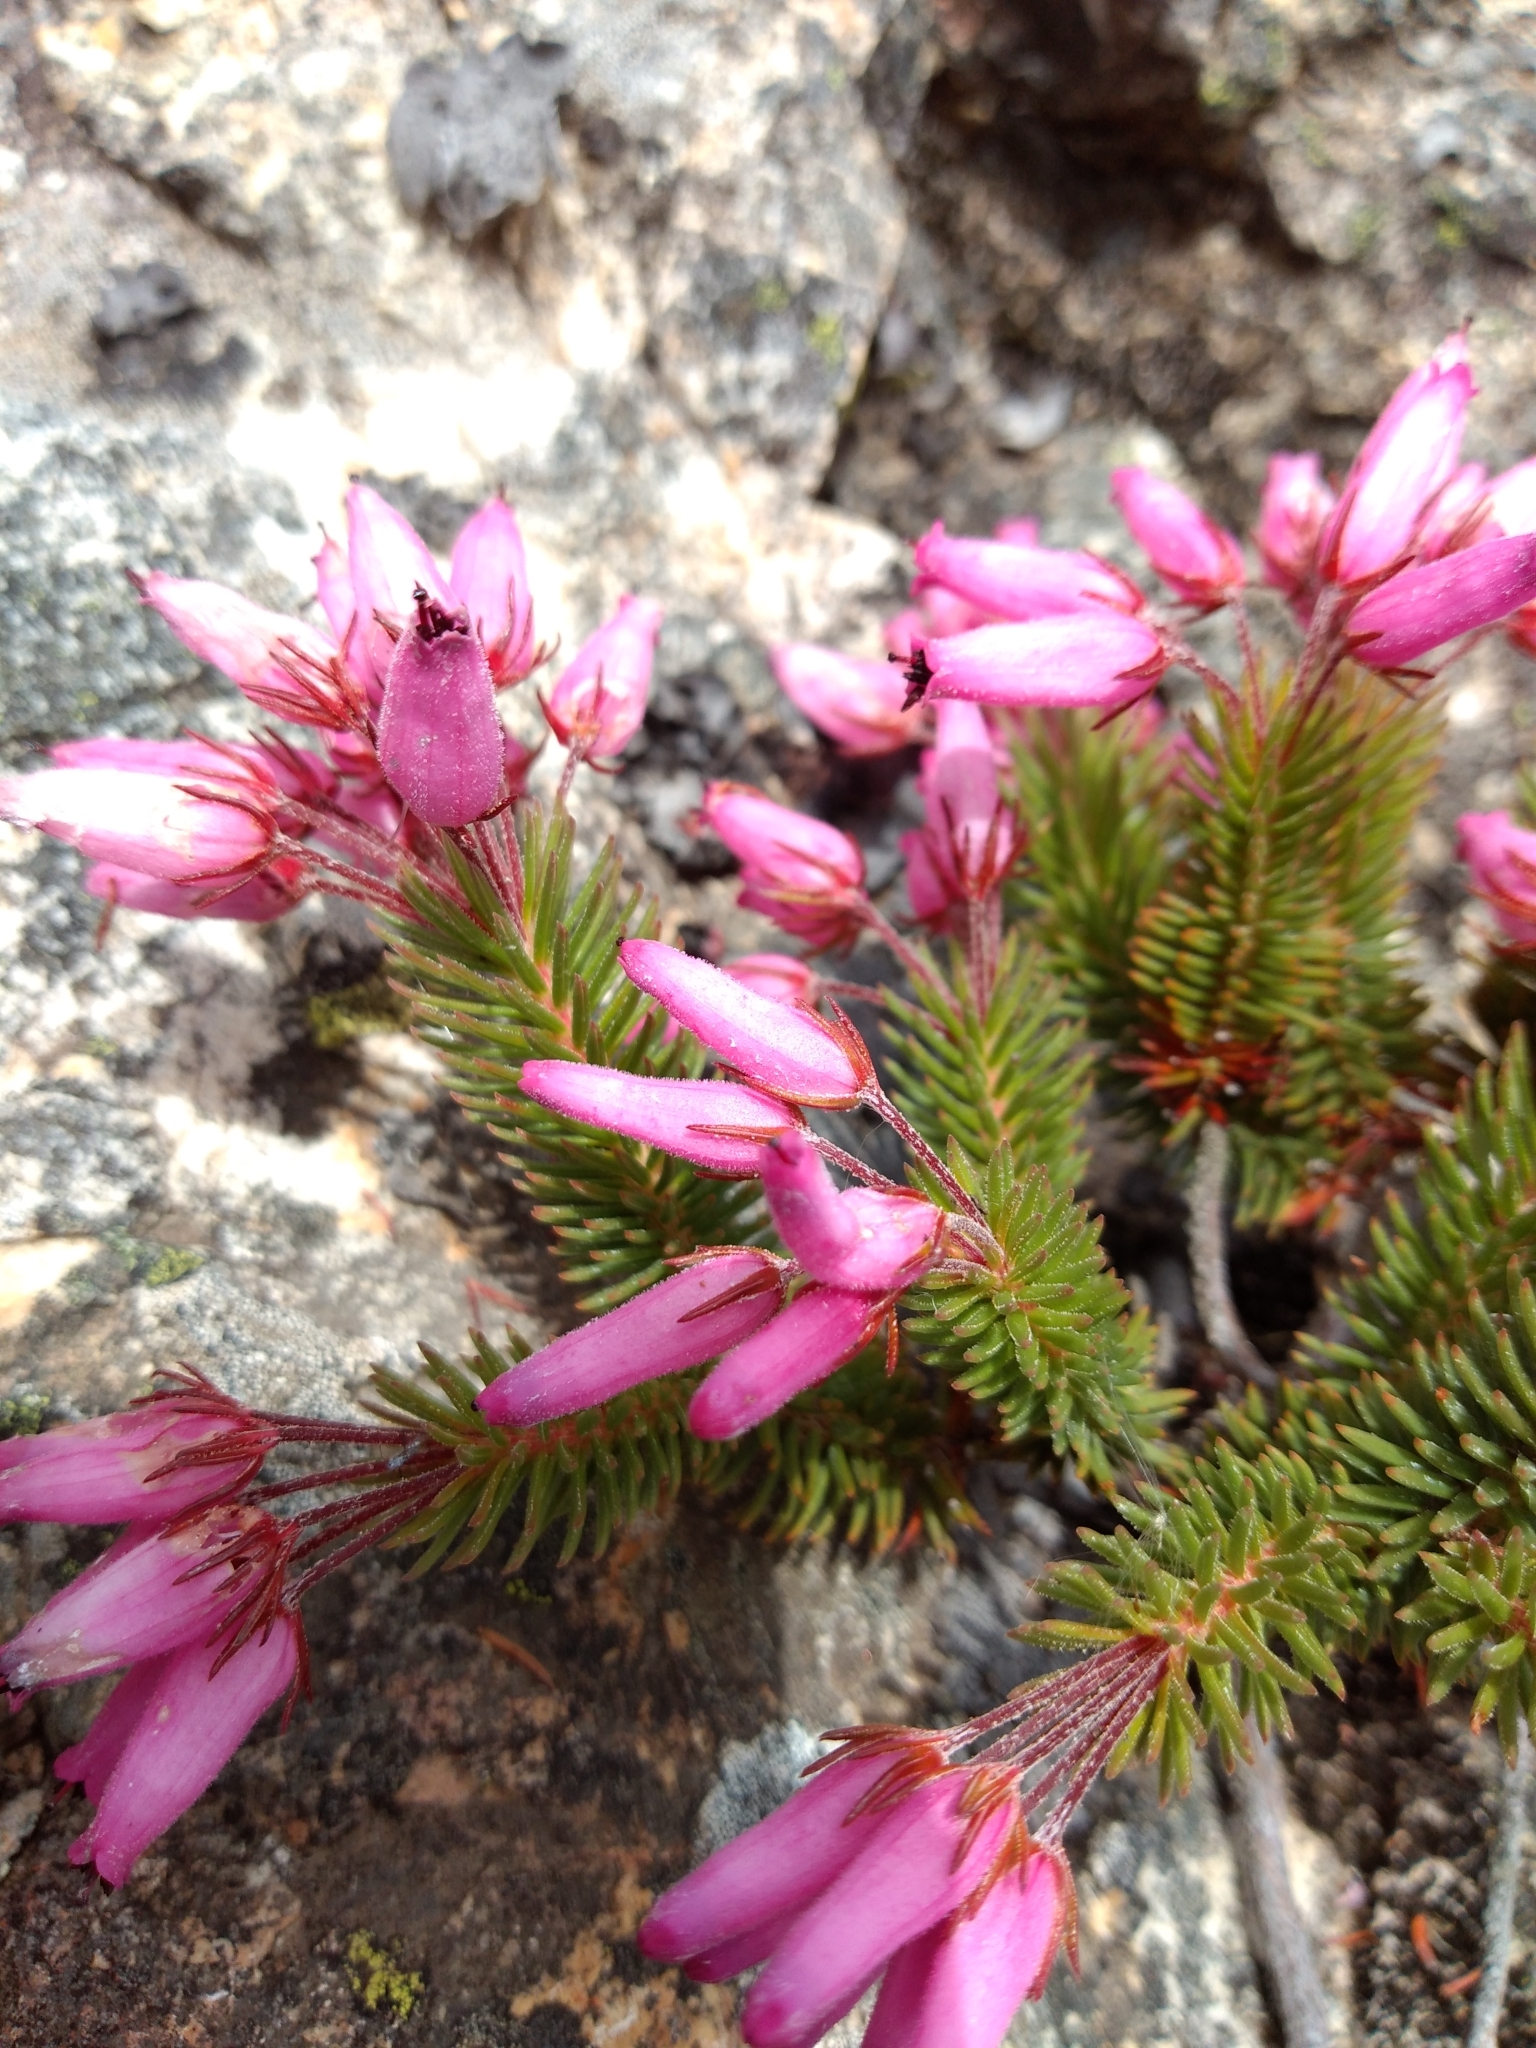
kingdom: Plantae
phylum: Tracheophyta
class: Magnoliopsida
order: Ericales
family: Ericaceae
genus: Erica
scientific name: Erica doliiformis
